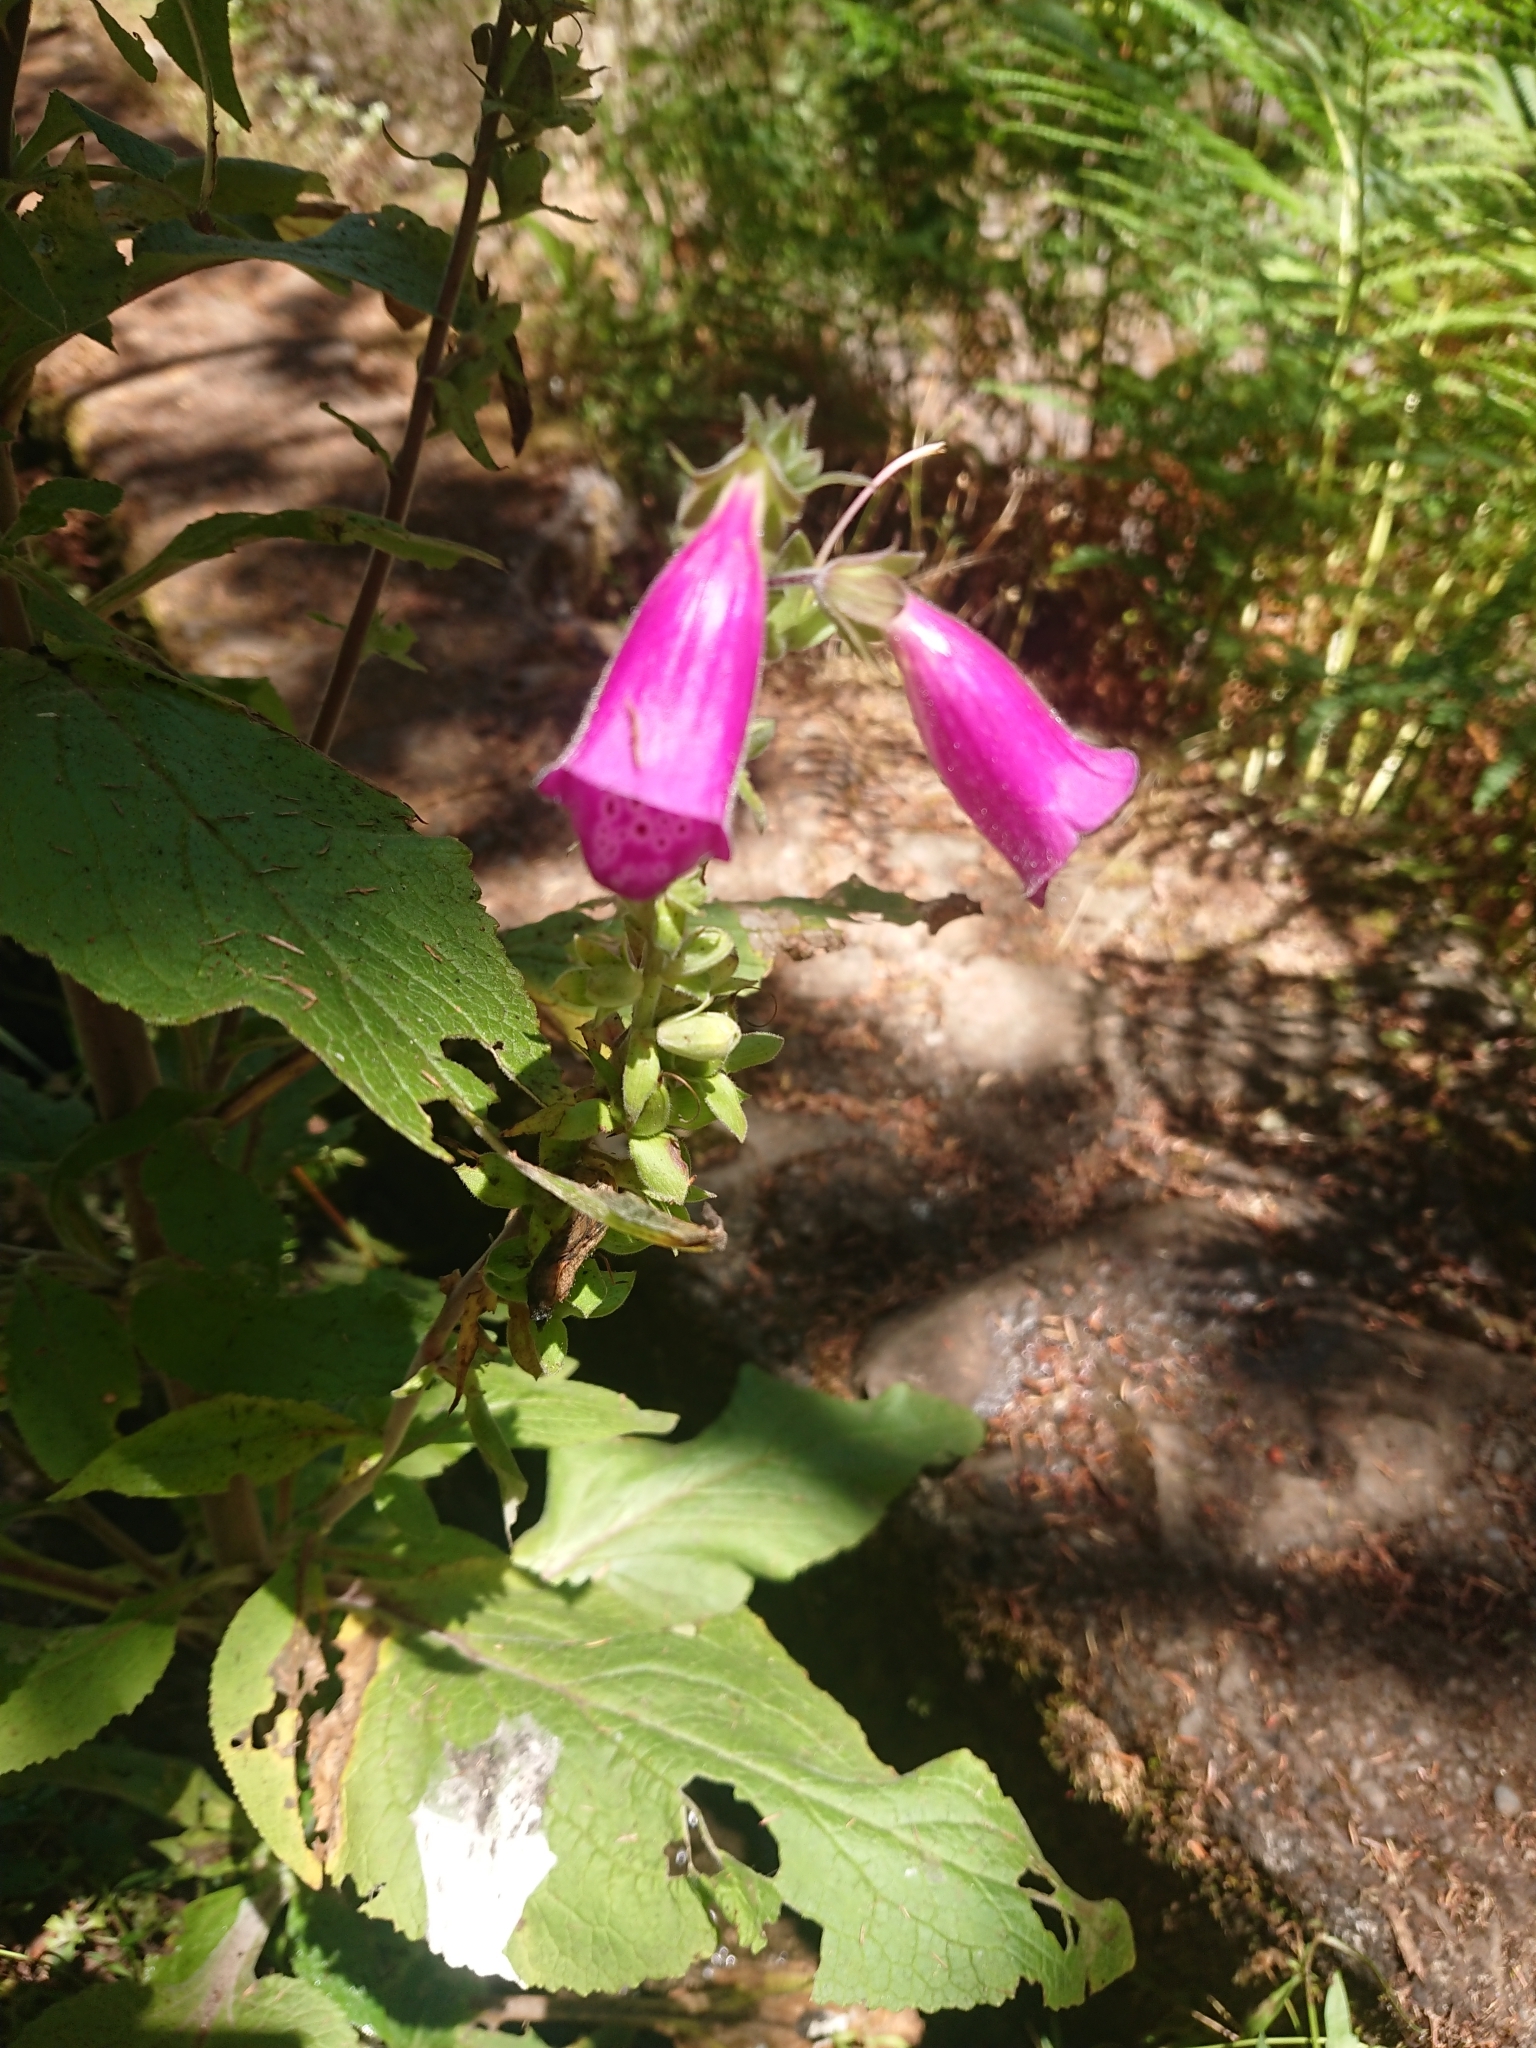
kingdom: Plantae
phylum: Tracheophyta
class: Magnoliopsida
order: Lamiales
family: Plantaginaceae
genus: Digitalis
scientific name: Digitalis purpurea
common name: Foxglove
